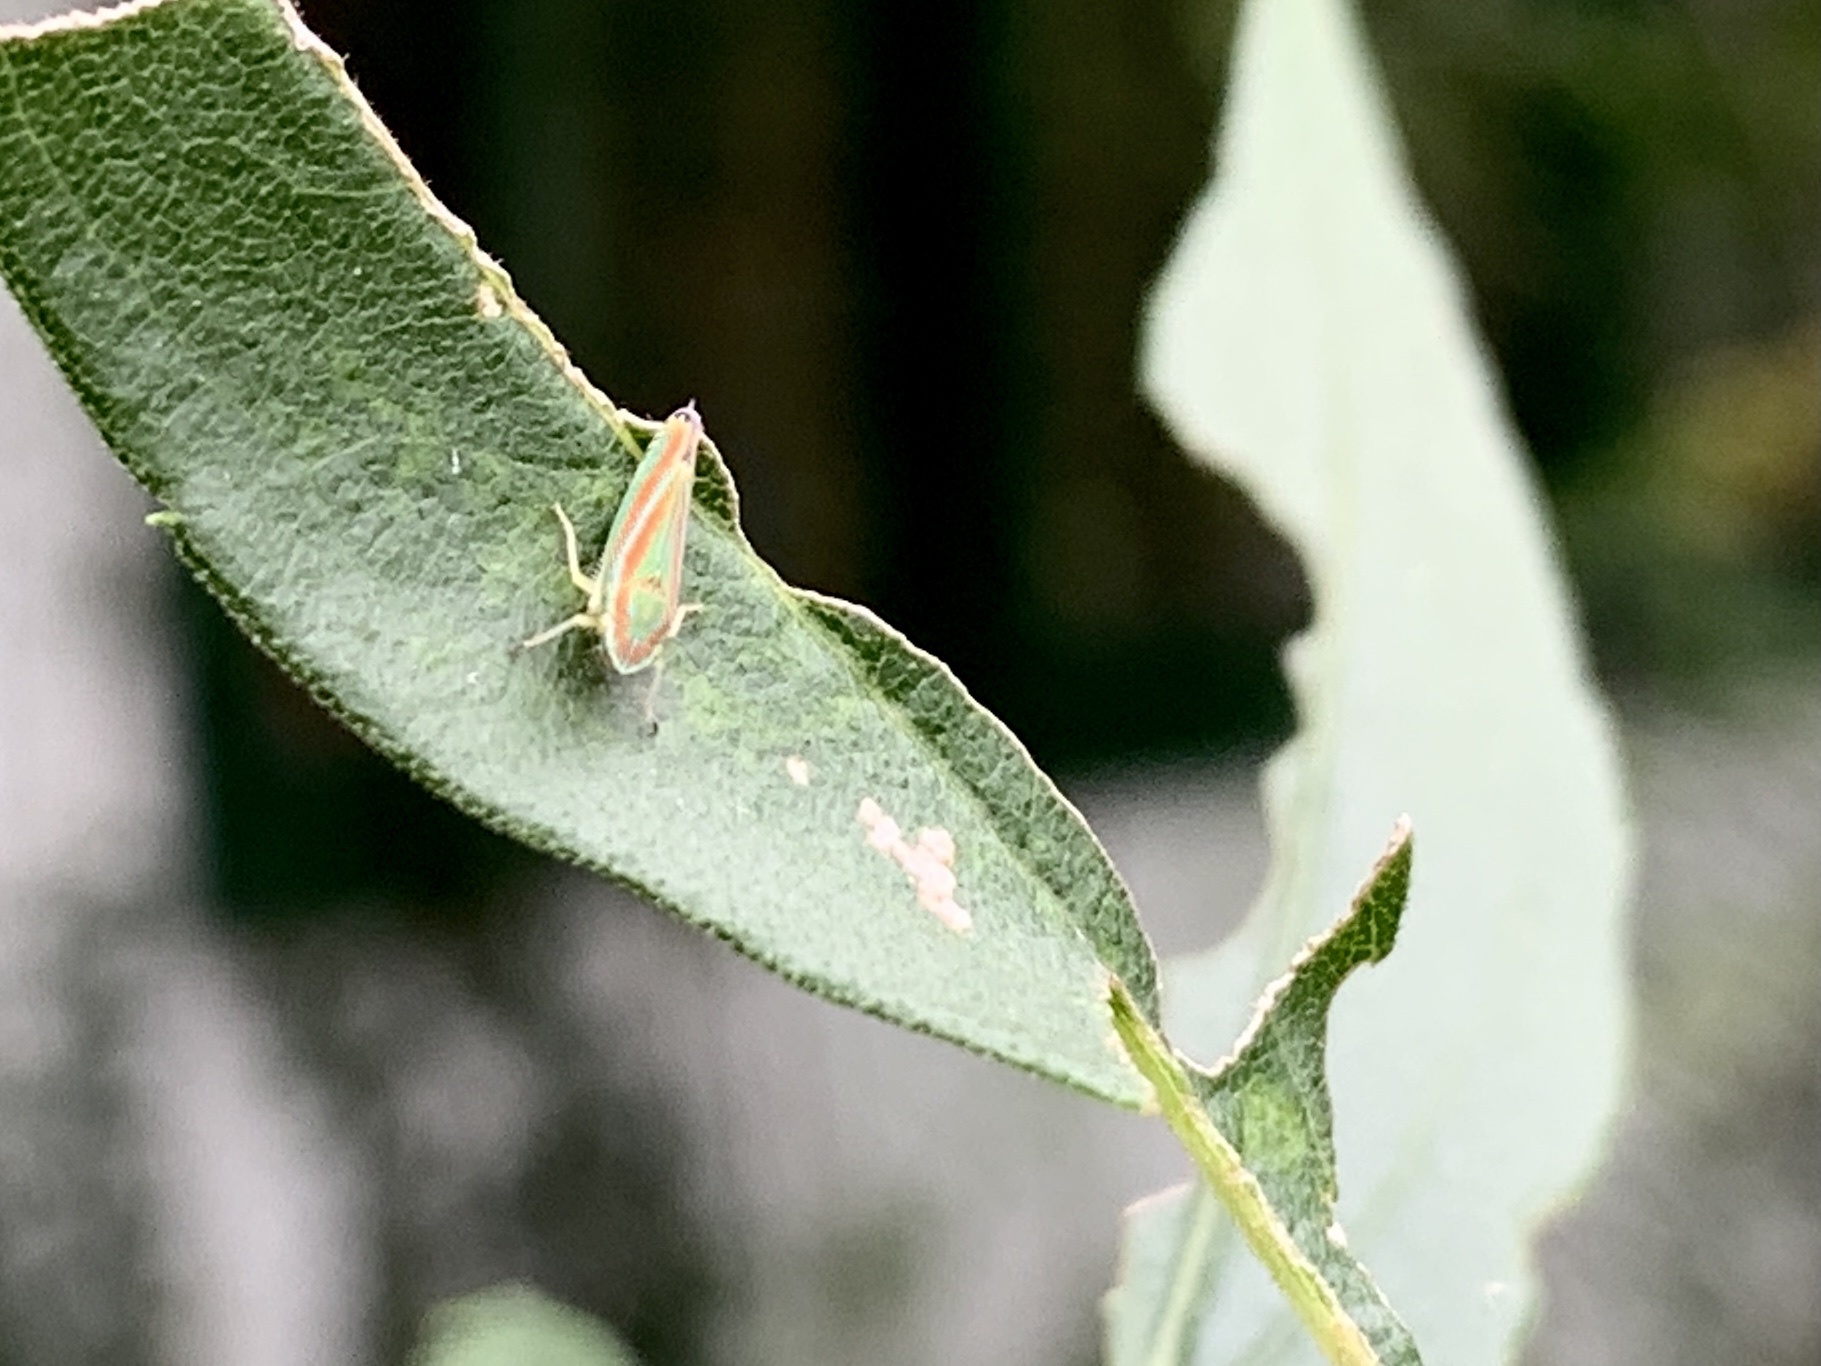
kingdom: Animalia
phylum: Arthropoda
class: Insecta
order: Hemiptera
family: Cicadellidae
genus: Graphocephala
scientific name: Graphocephala versuta
